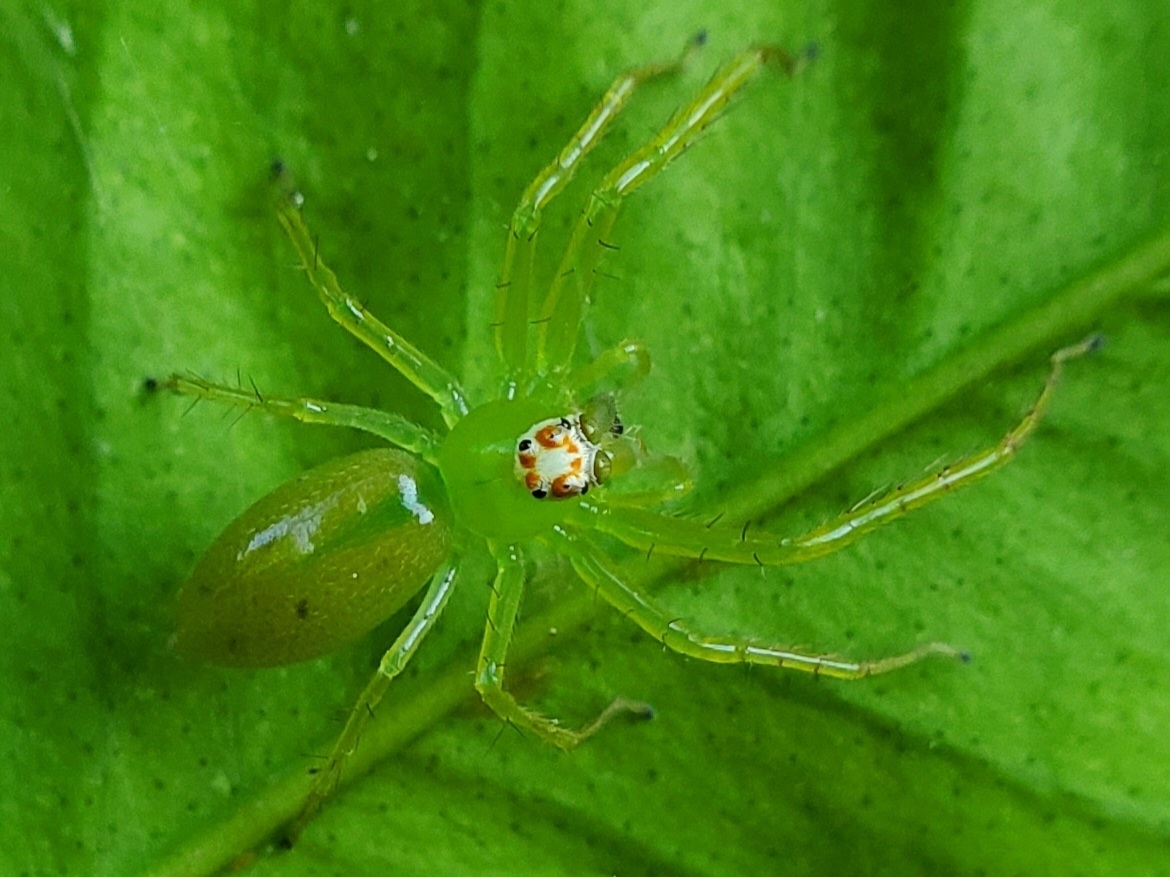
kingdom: Animalia
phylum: Arthropoda
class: Arachnida
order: Araneae
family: Salticidae
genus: Lyssomanes
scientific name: Lyssomanes viridis
